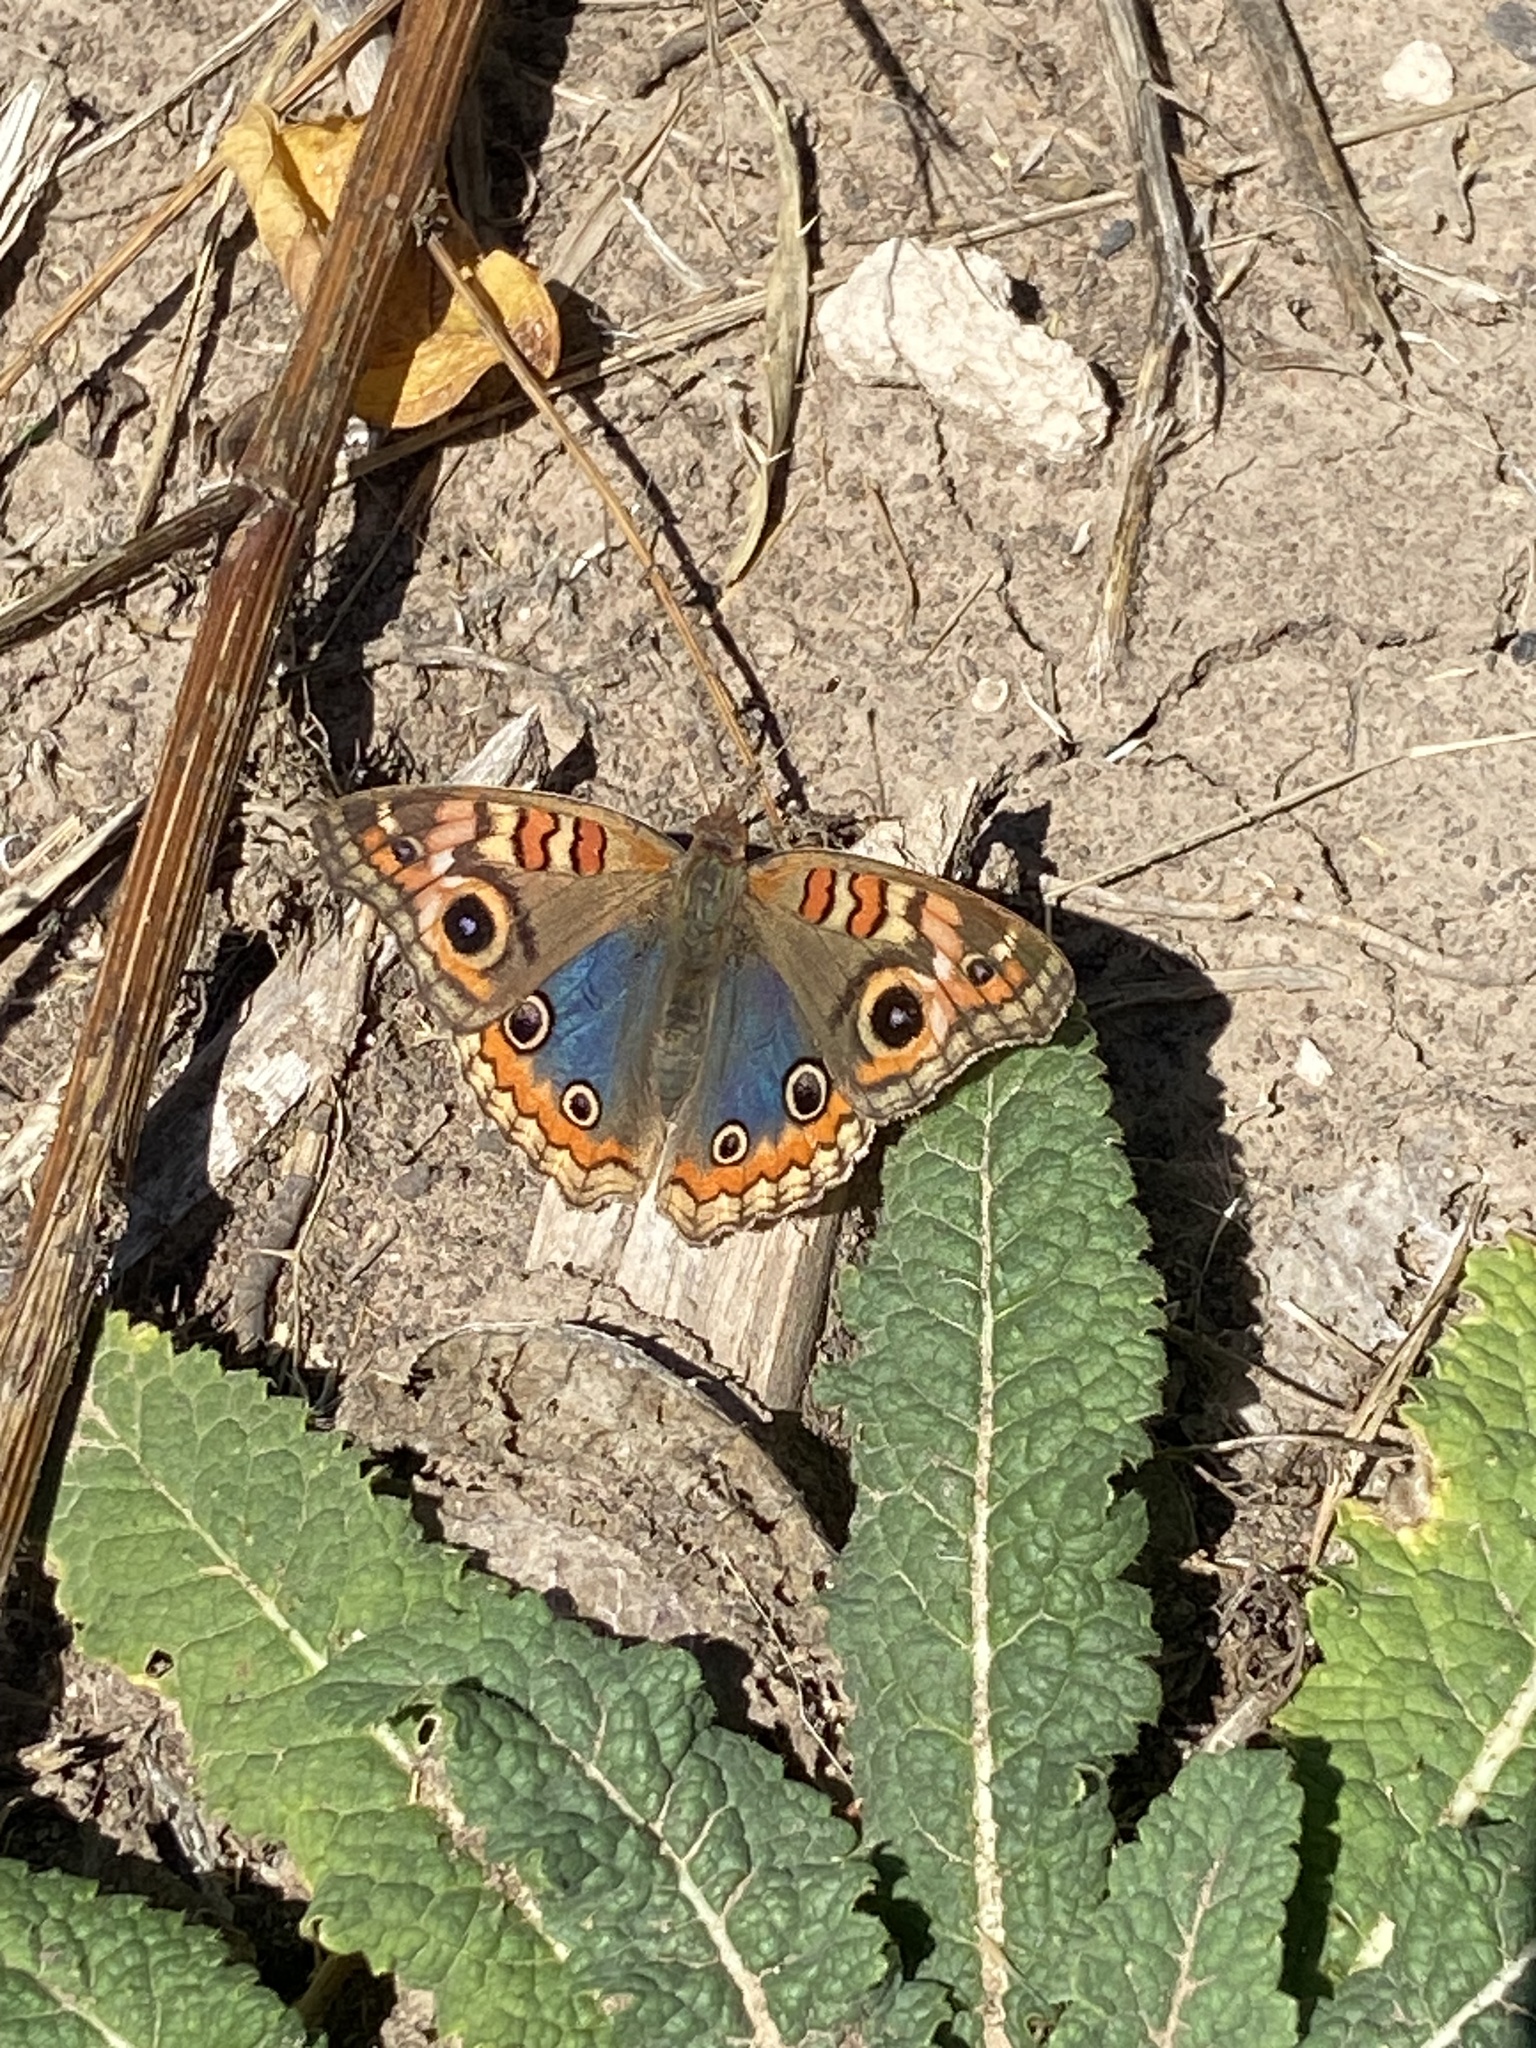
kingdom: Animalia
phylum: Arthropoda
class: Insecta
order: Lepidoptera
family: Nymphalidae
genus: Junonia
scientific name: Junonia lavinia
